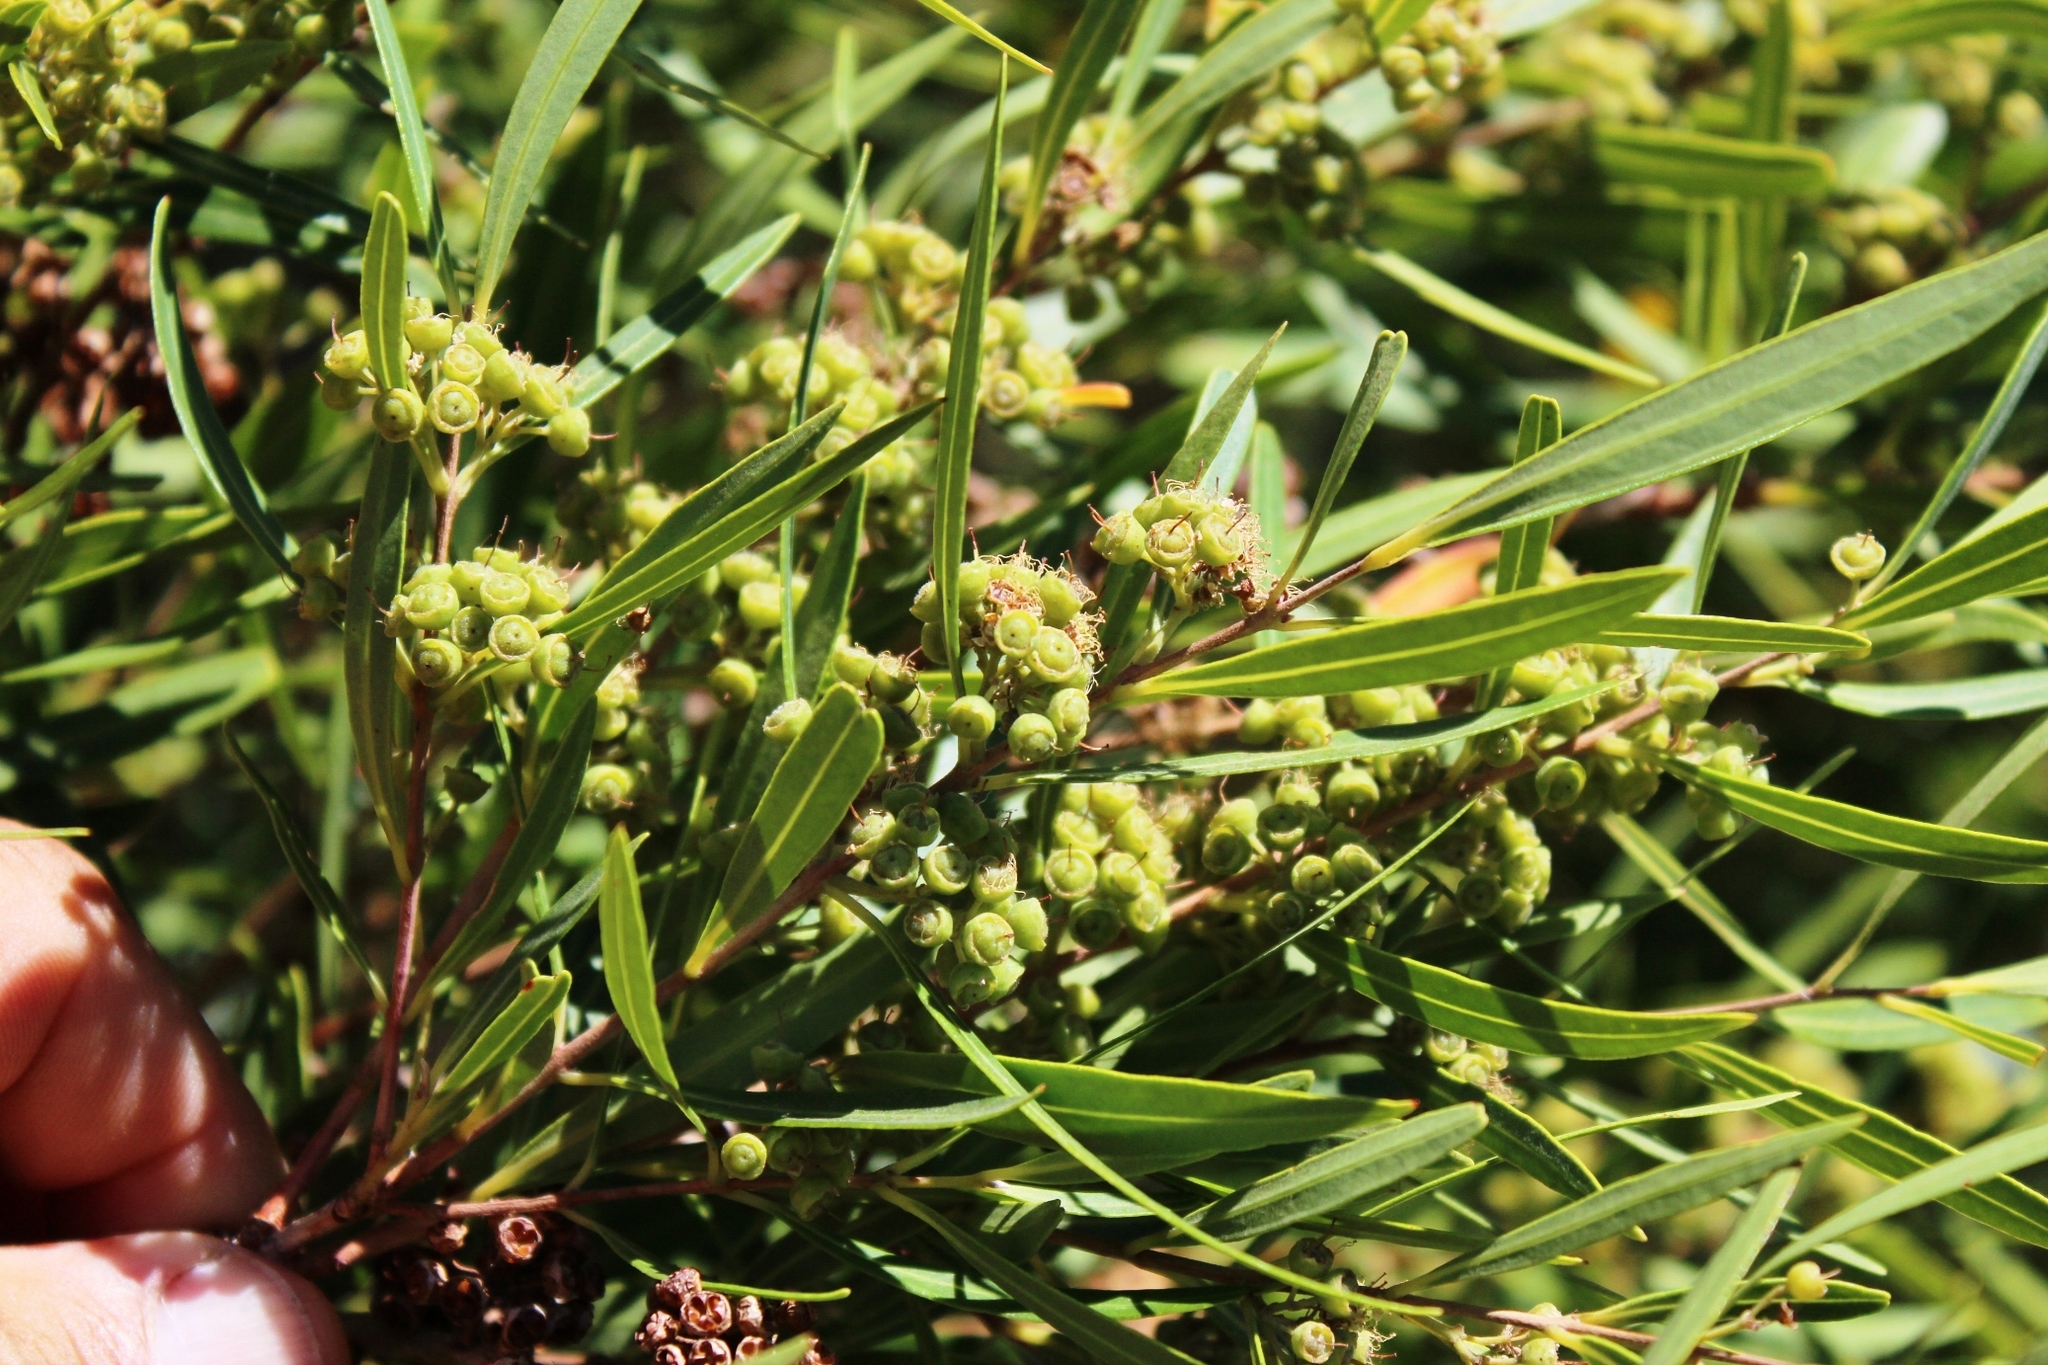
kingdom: Plantae
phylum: Tracheophyta
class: Magnoliopsida
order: Myrtales
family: Myrtaceae
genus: Callistemon
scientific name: Callistemon lanceolatus
